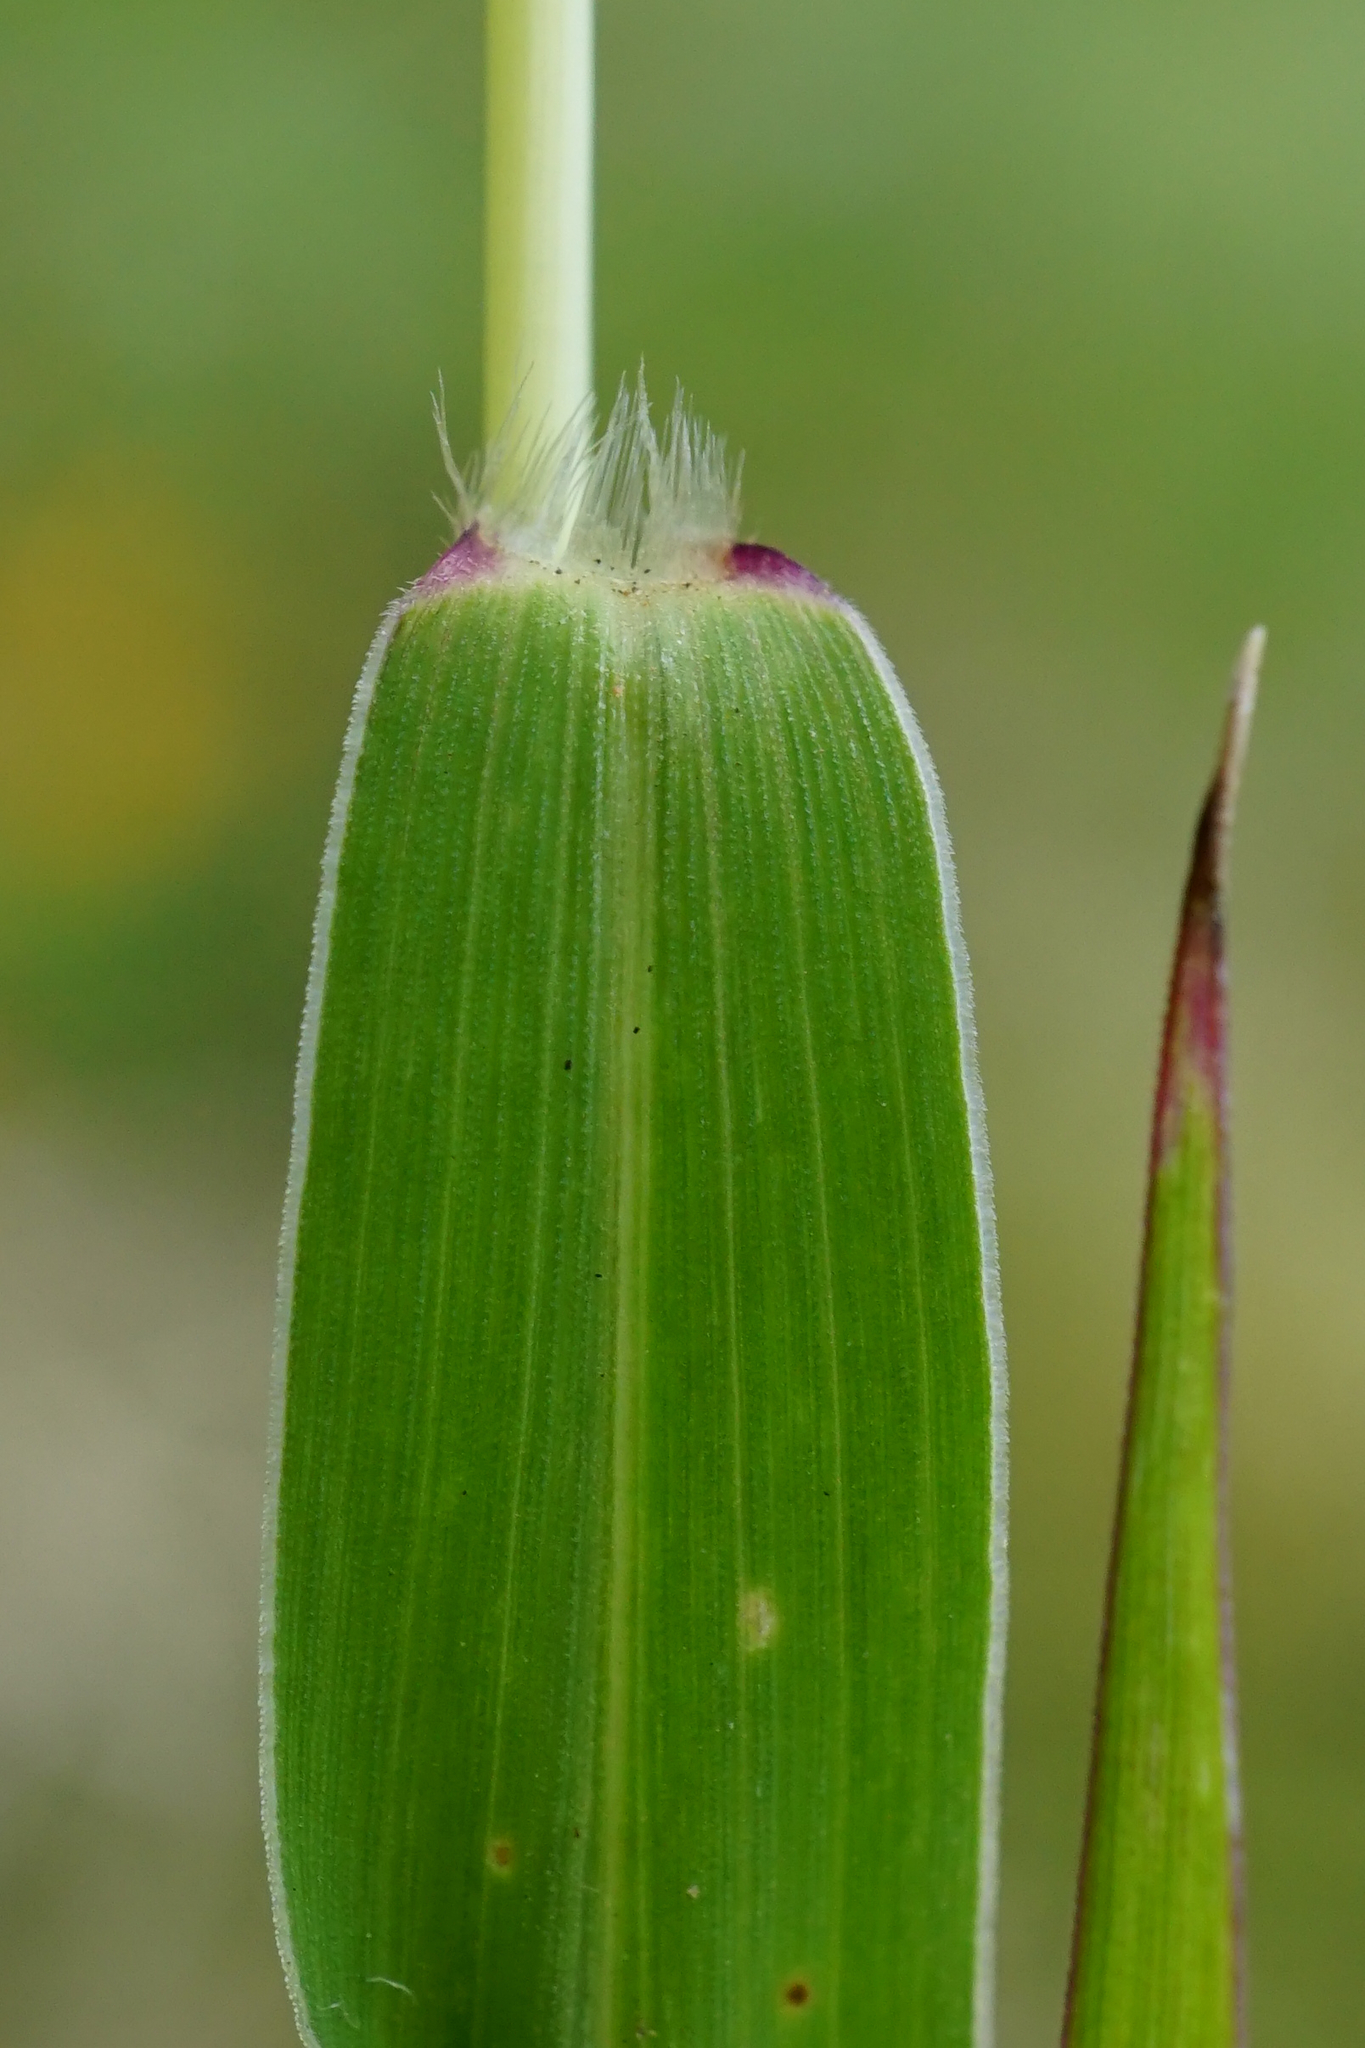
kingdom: Plantae
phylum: Tracheophyta
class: Liliopsida
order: Poales
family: Poaceae
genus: Setaria
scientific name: Setaria viridis
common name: Green bristlegrass
